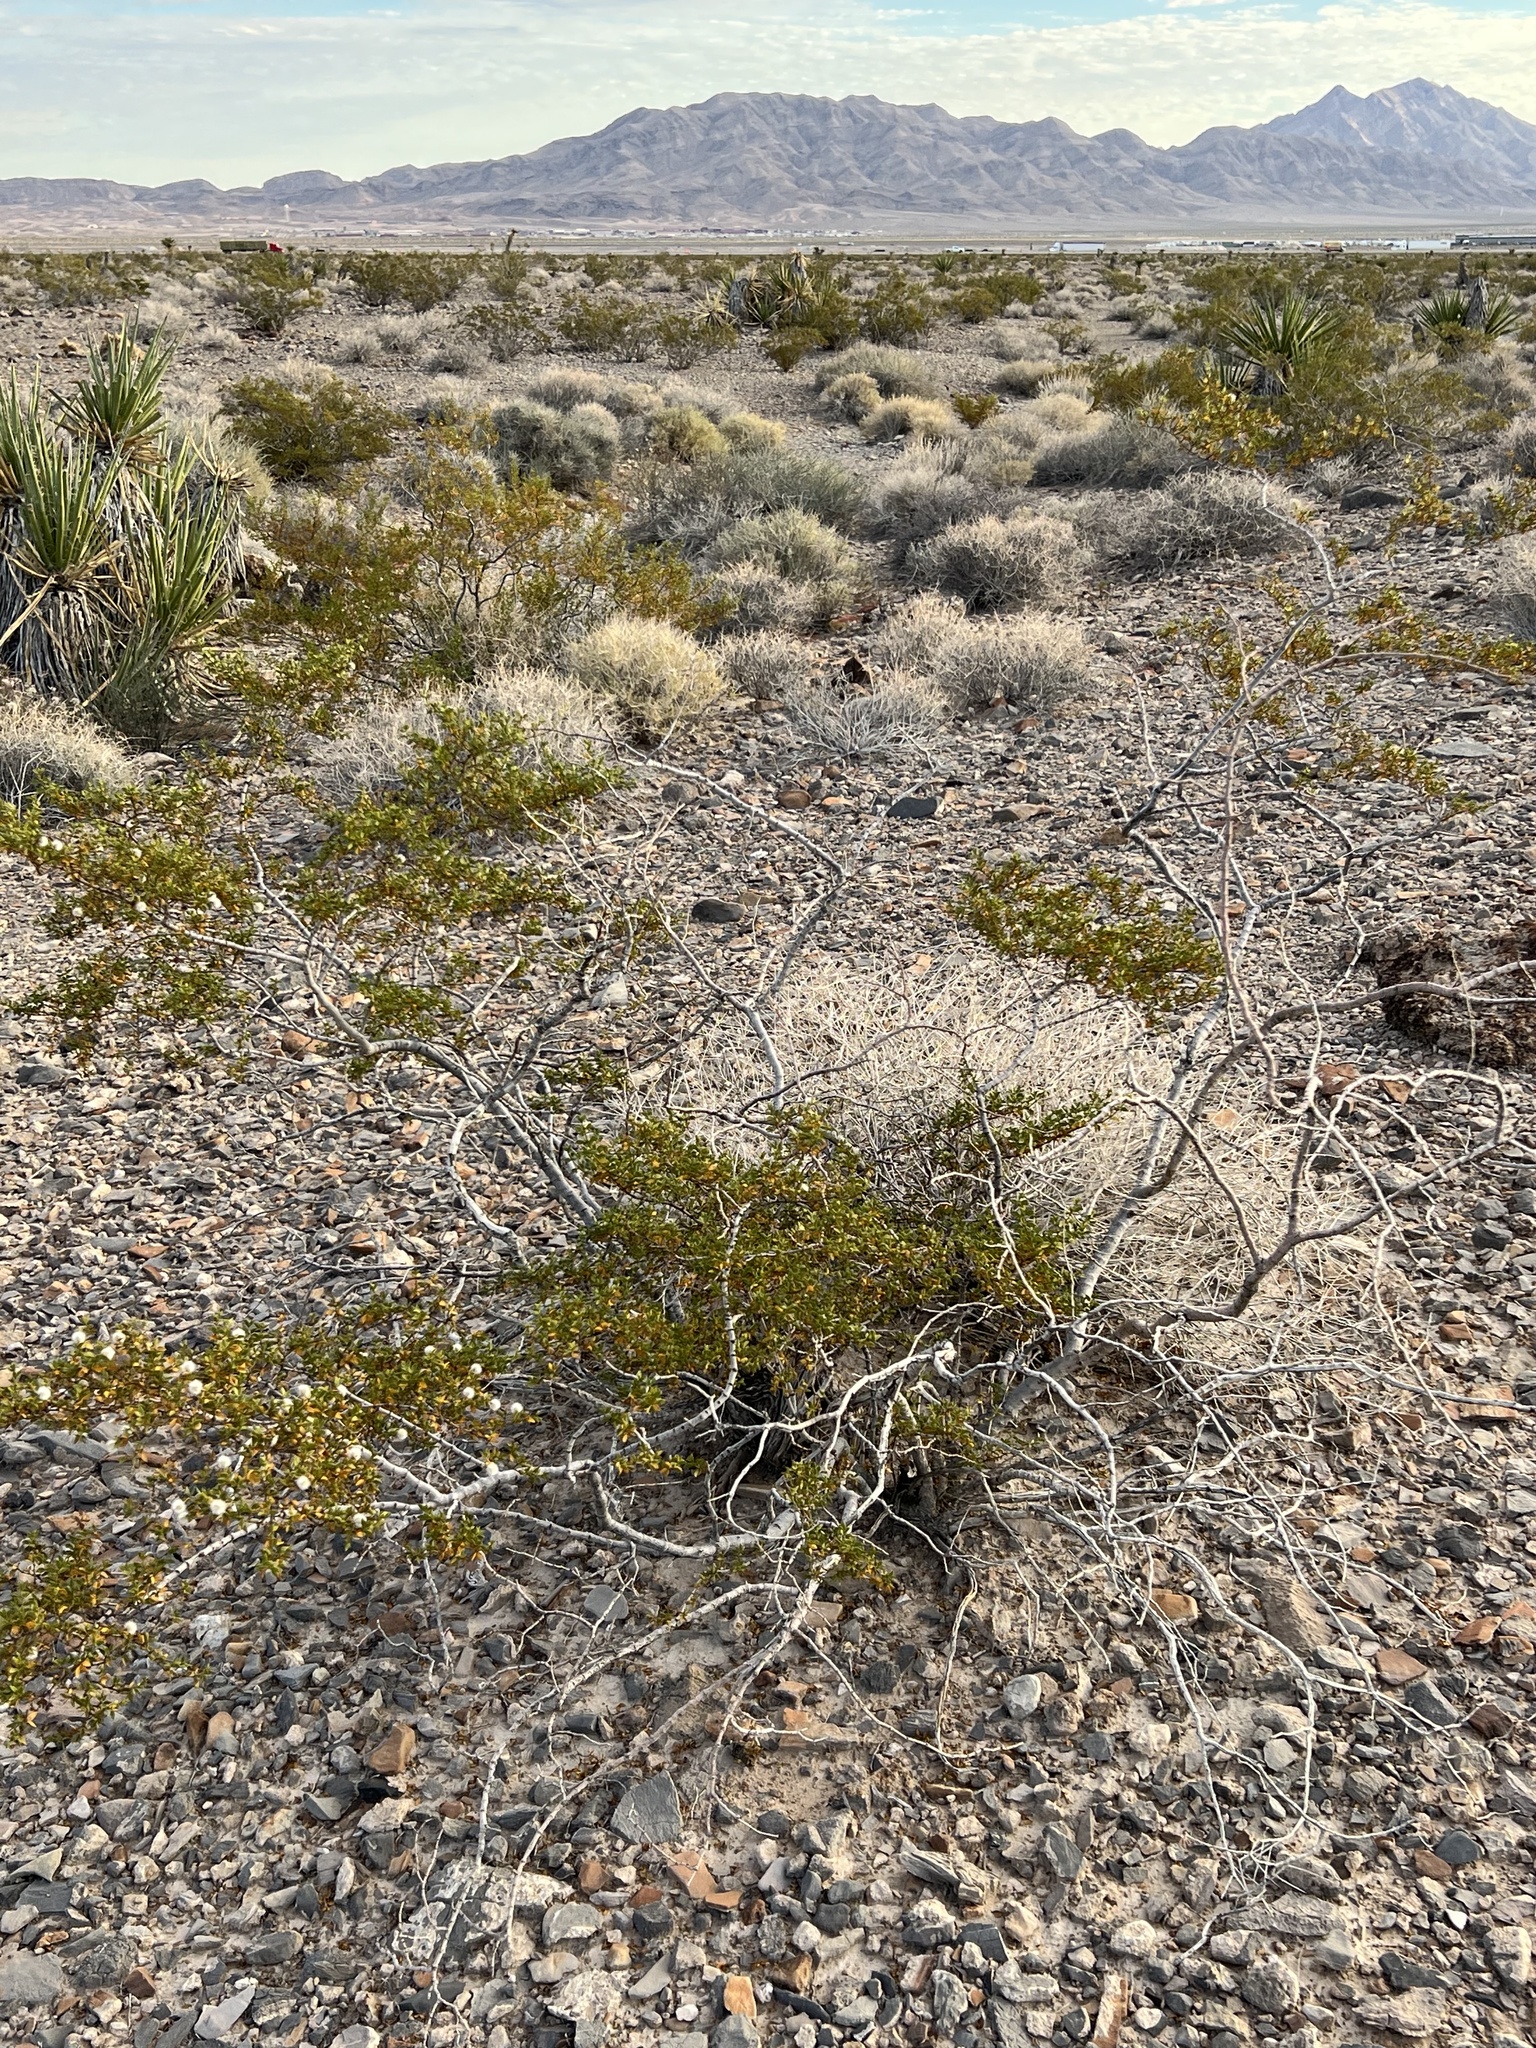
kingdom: Plantae
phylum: Tracheophyta
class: Magnoliopsida
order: Zygophyllales
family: Zygophyllaceae
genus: Larrea
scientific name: Larrea tridentata
